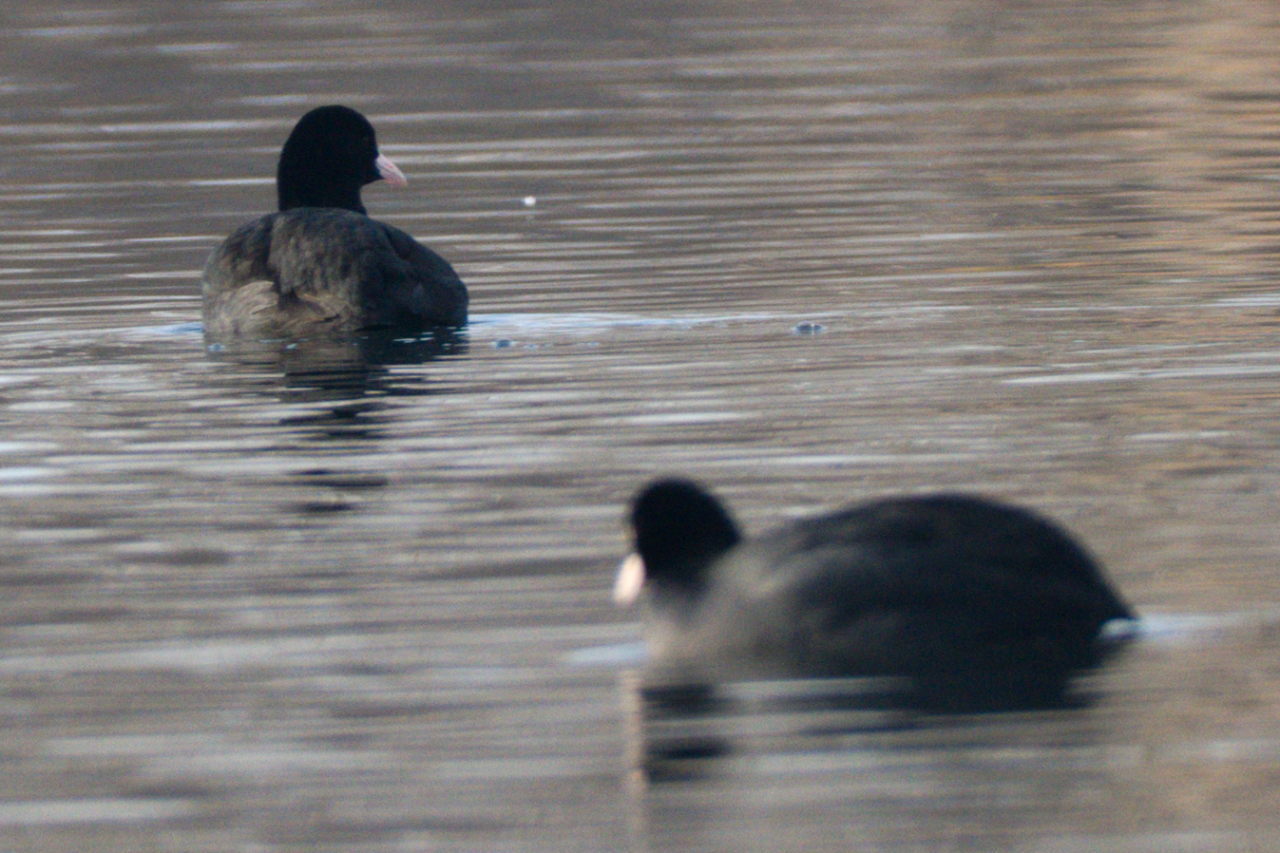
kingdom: Animalia
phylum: Chordata
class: Aves
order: Gruiformes
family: Rallidae
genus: Fulica
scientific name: Fulica atra
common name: Eurasian coot
